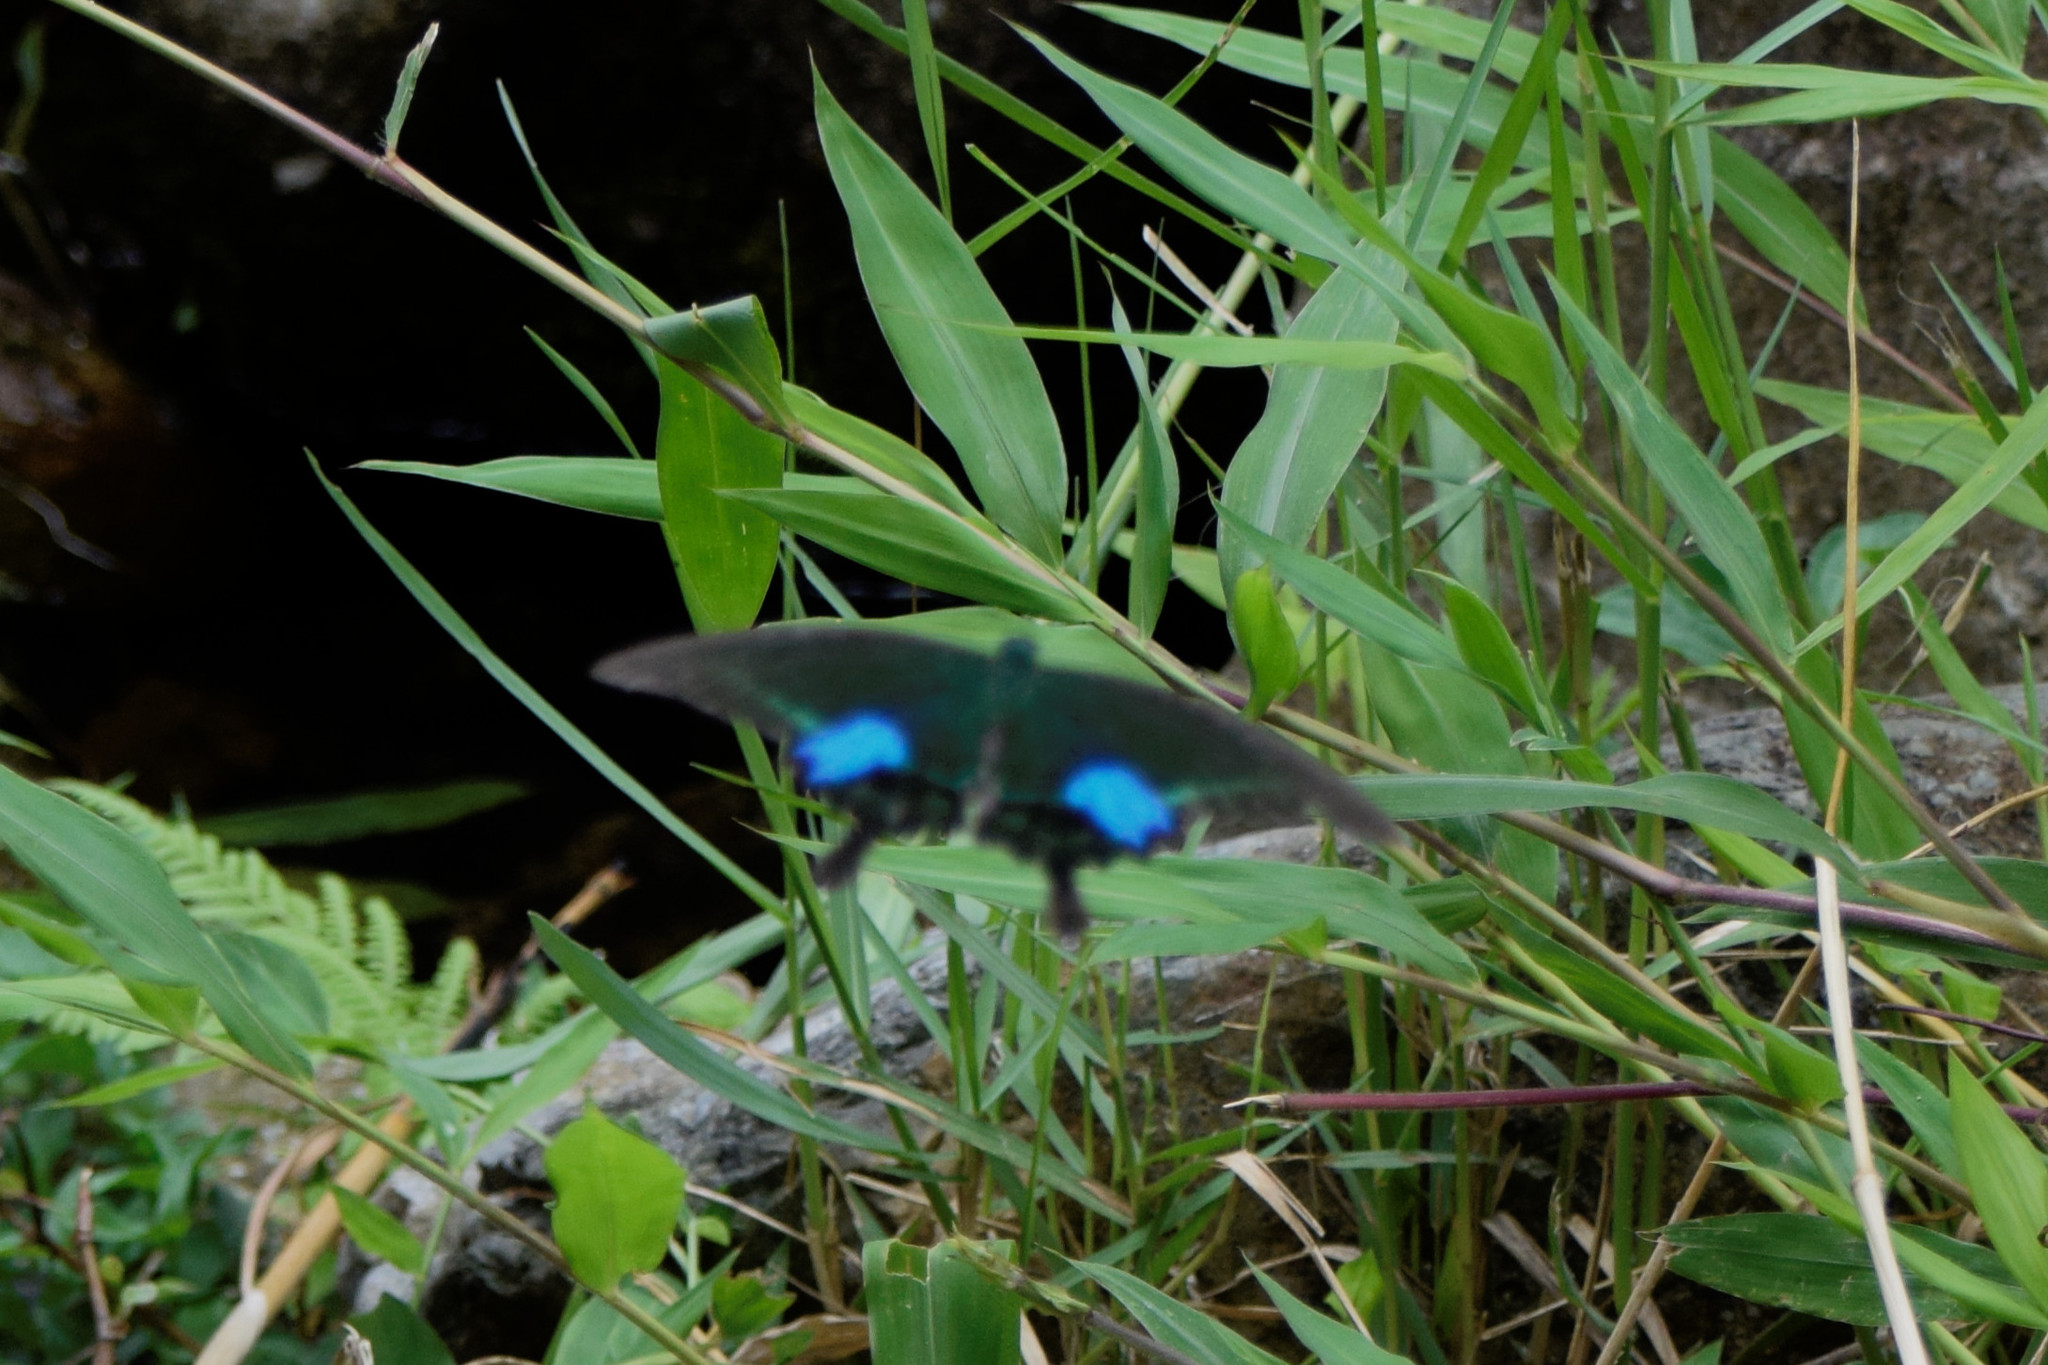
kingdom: Animalia
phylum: Arthropoda
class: Insecta
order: Lepidoptera
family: Papilionidae
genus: Papilio
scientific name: Papilio paris
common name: Paris peacock
